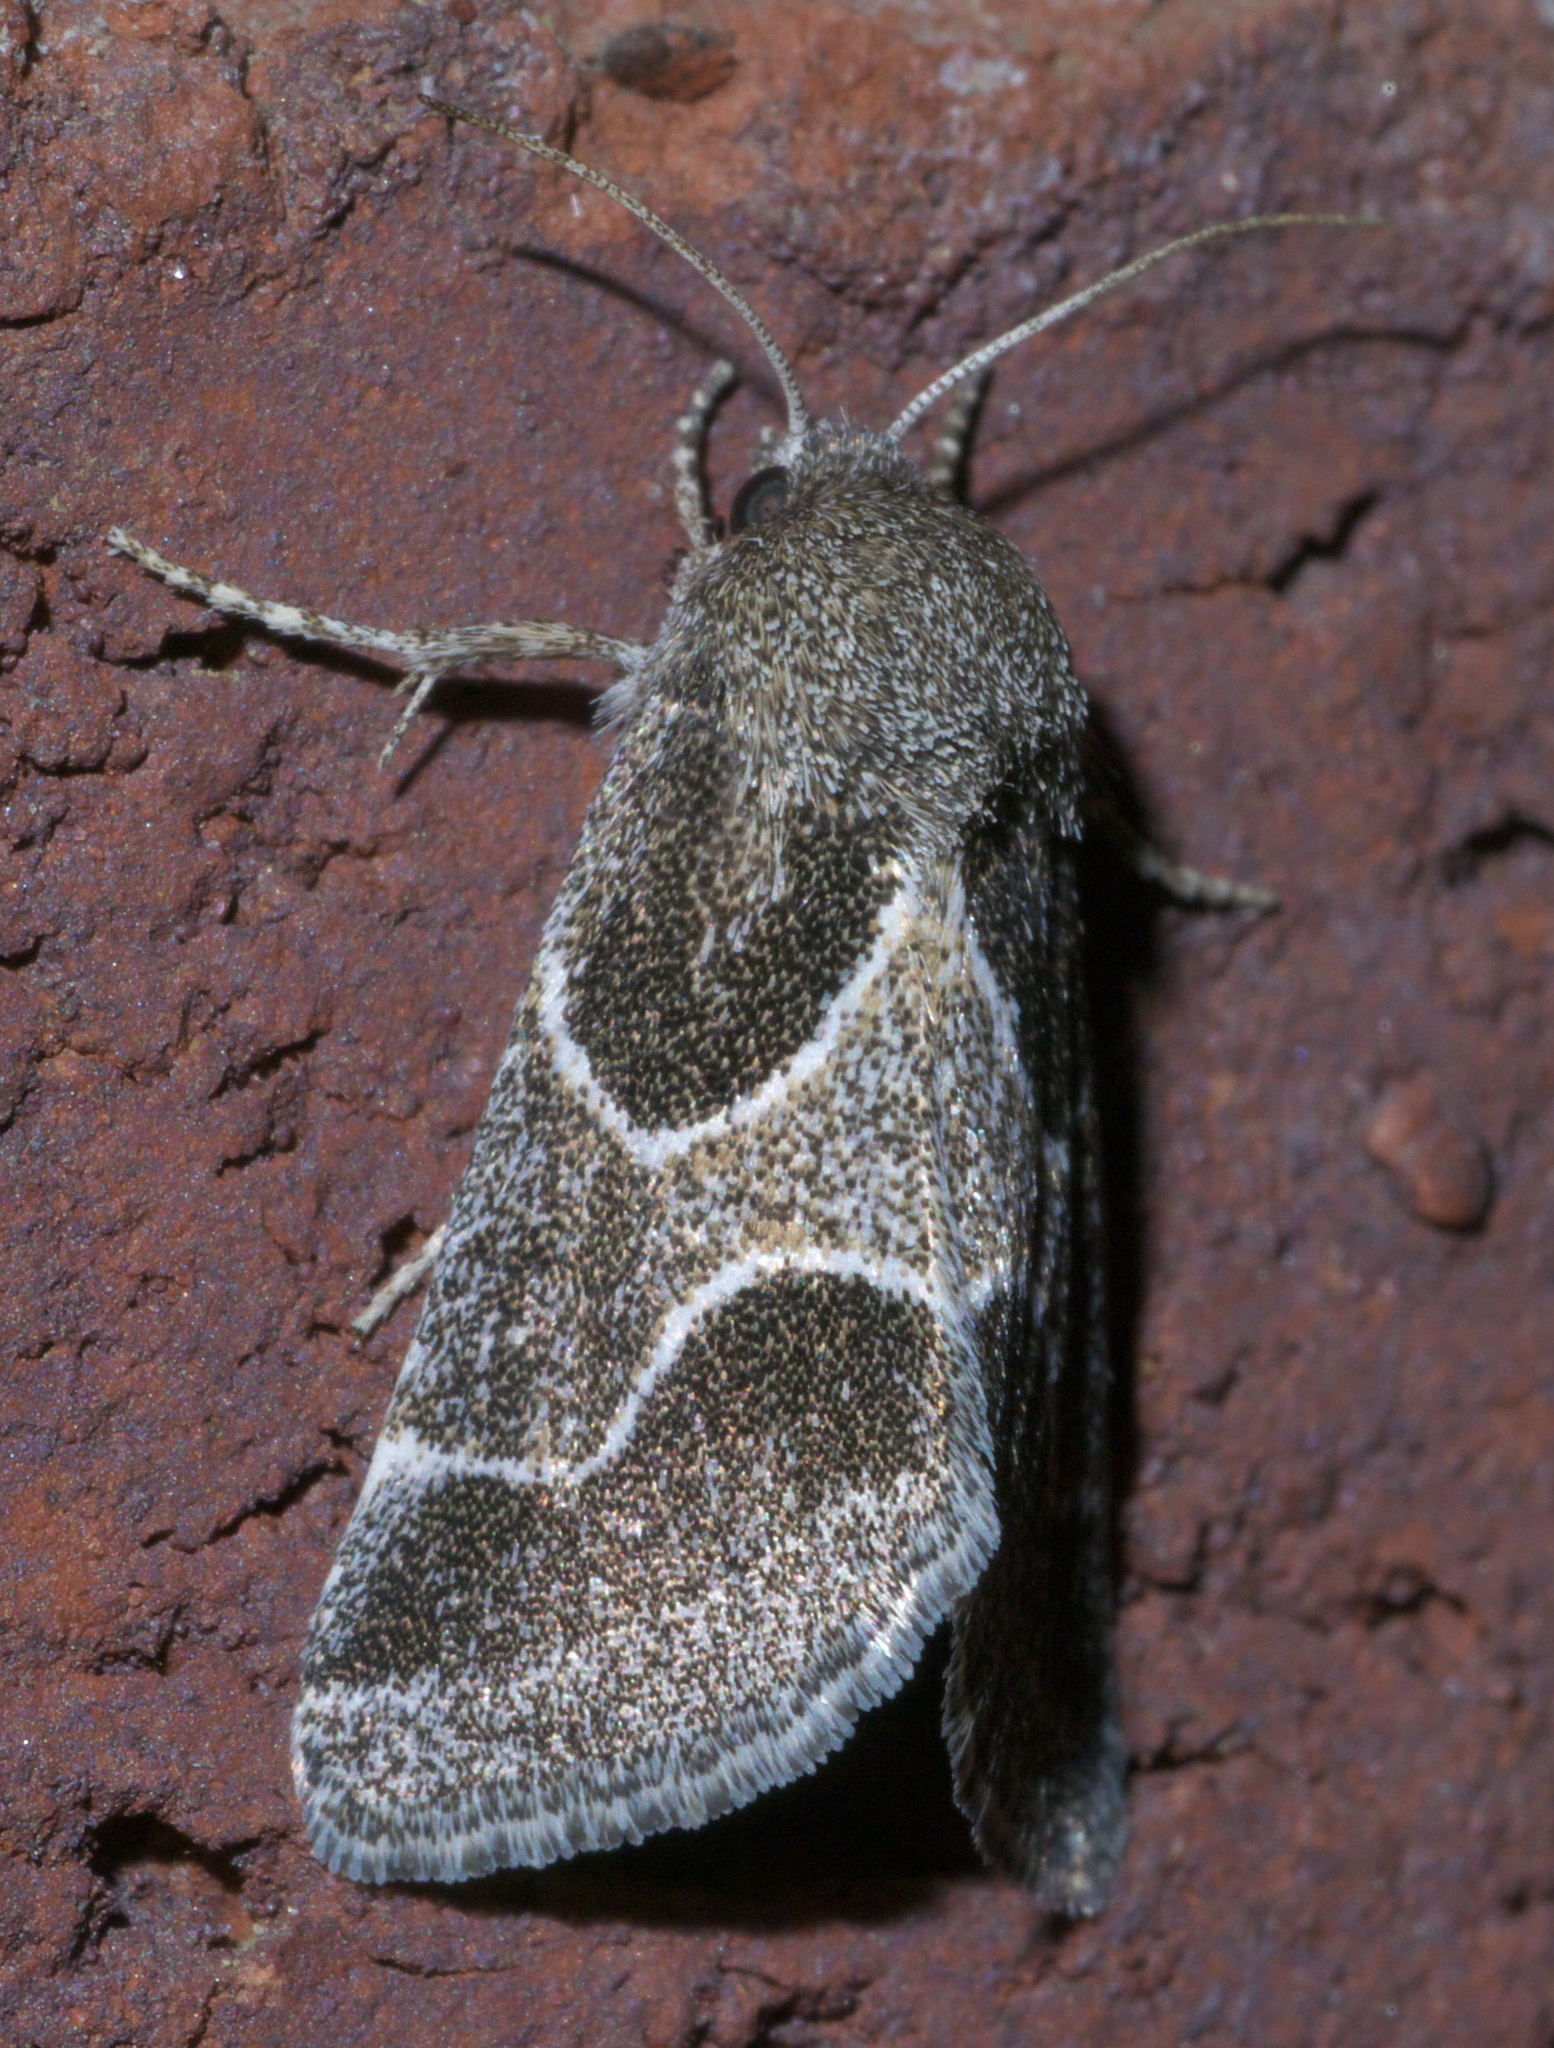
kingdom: Animalia
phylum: Arthropoda
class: Insecta
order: Lepidoptera
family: Noctuidae
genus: Schinia
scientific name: Schinia rivulosa
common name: Scarce meal-moth
